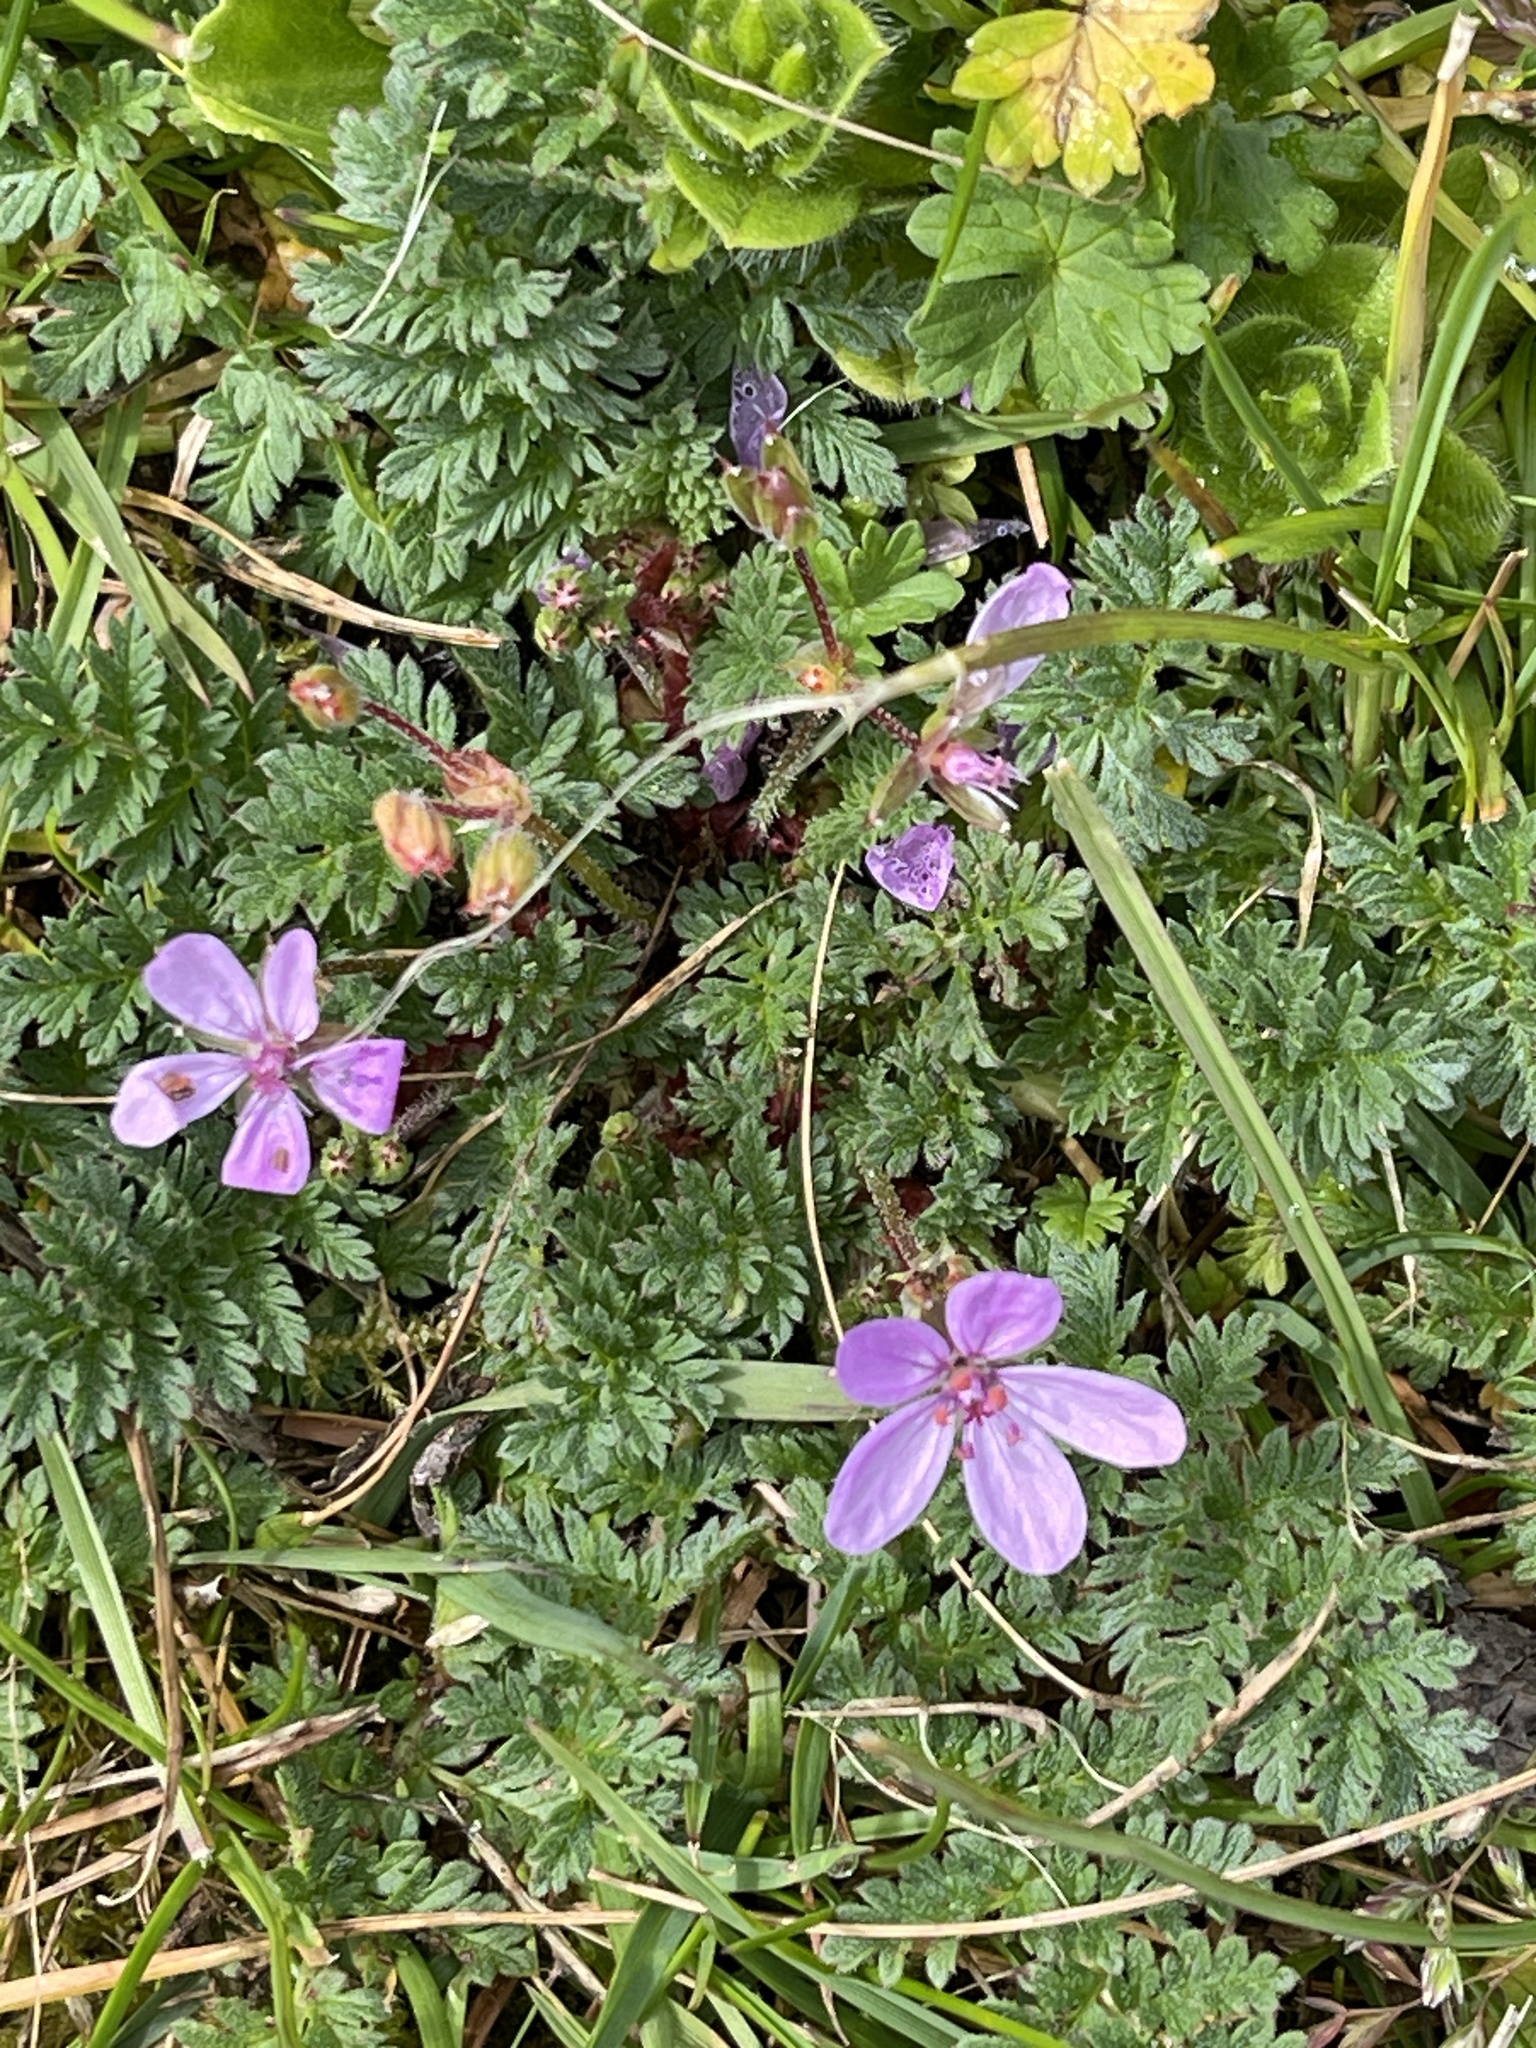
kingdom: Plantae
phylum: Tracheophyta
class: Magnoliopsida
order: Geraniales
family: Geraniaceae
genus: Erodium
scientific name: Erodium cicutarium
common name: Common stork's-bill
